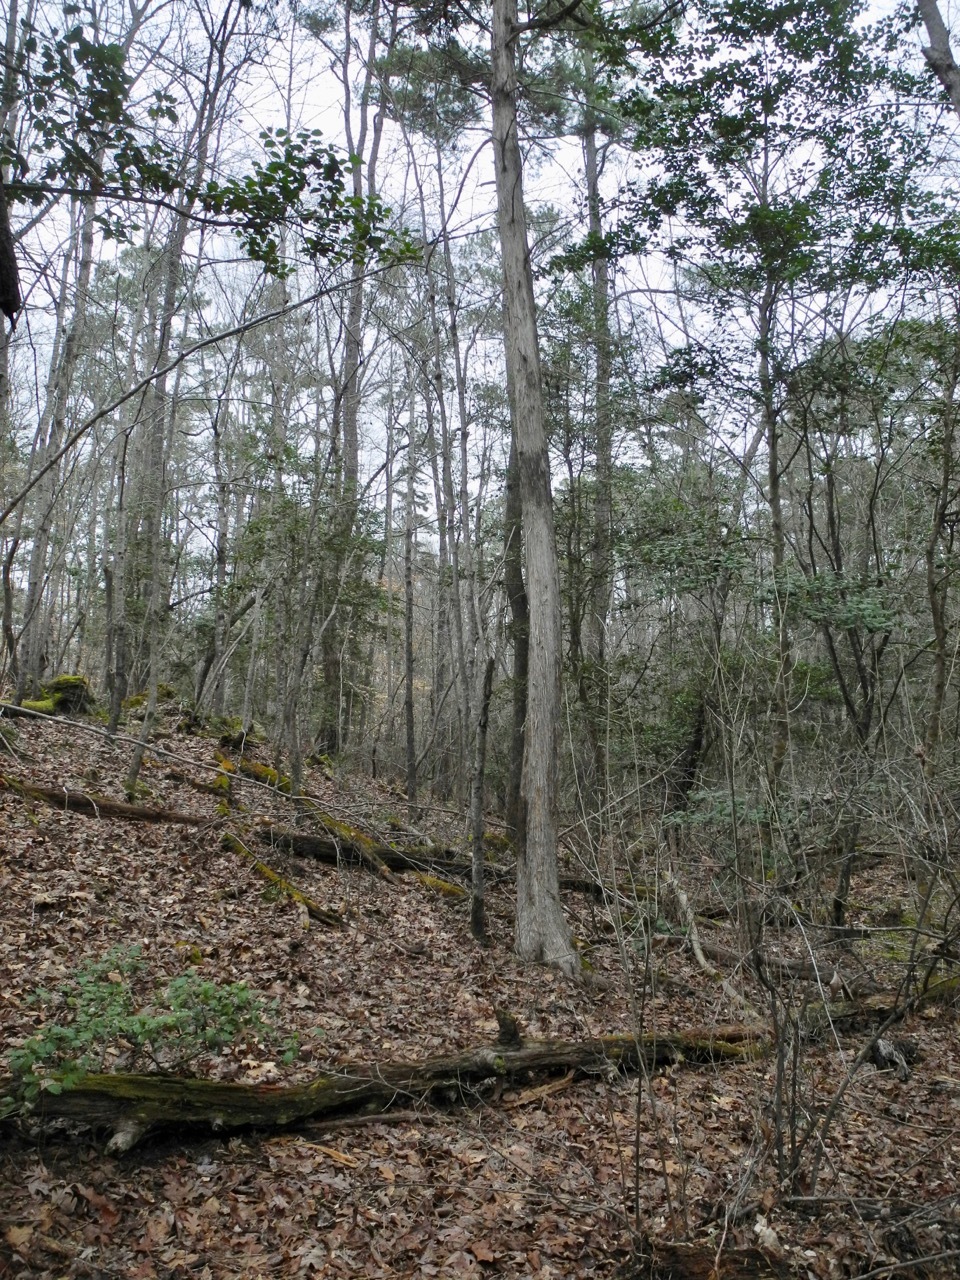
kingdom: Plantae
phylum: Tracheophyta
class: Pinopsida
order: Pinales
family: Cupressaceae
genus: Juniperus
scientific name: Juniperus virginiana
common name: Red juniper
